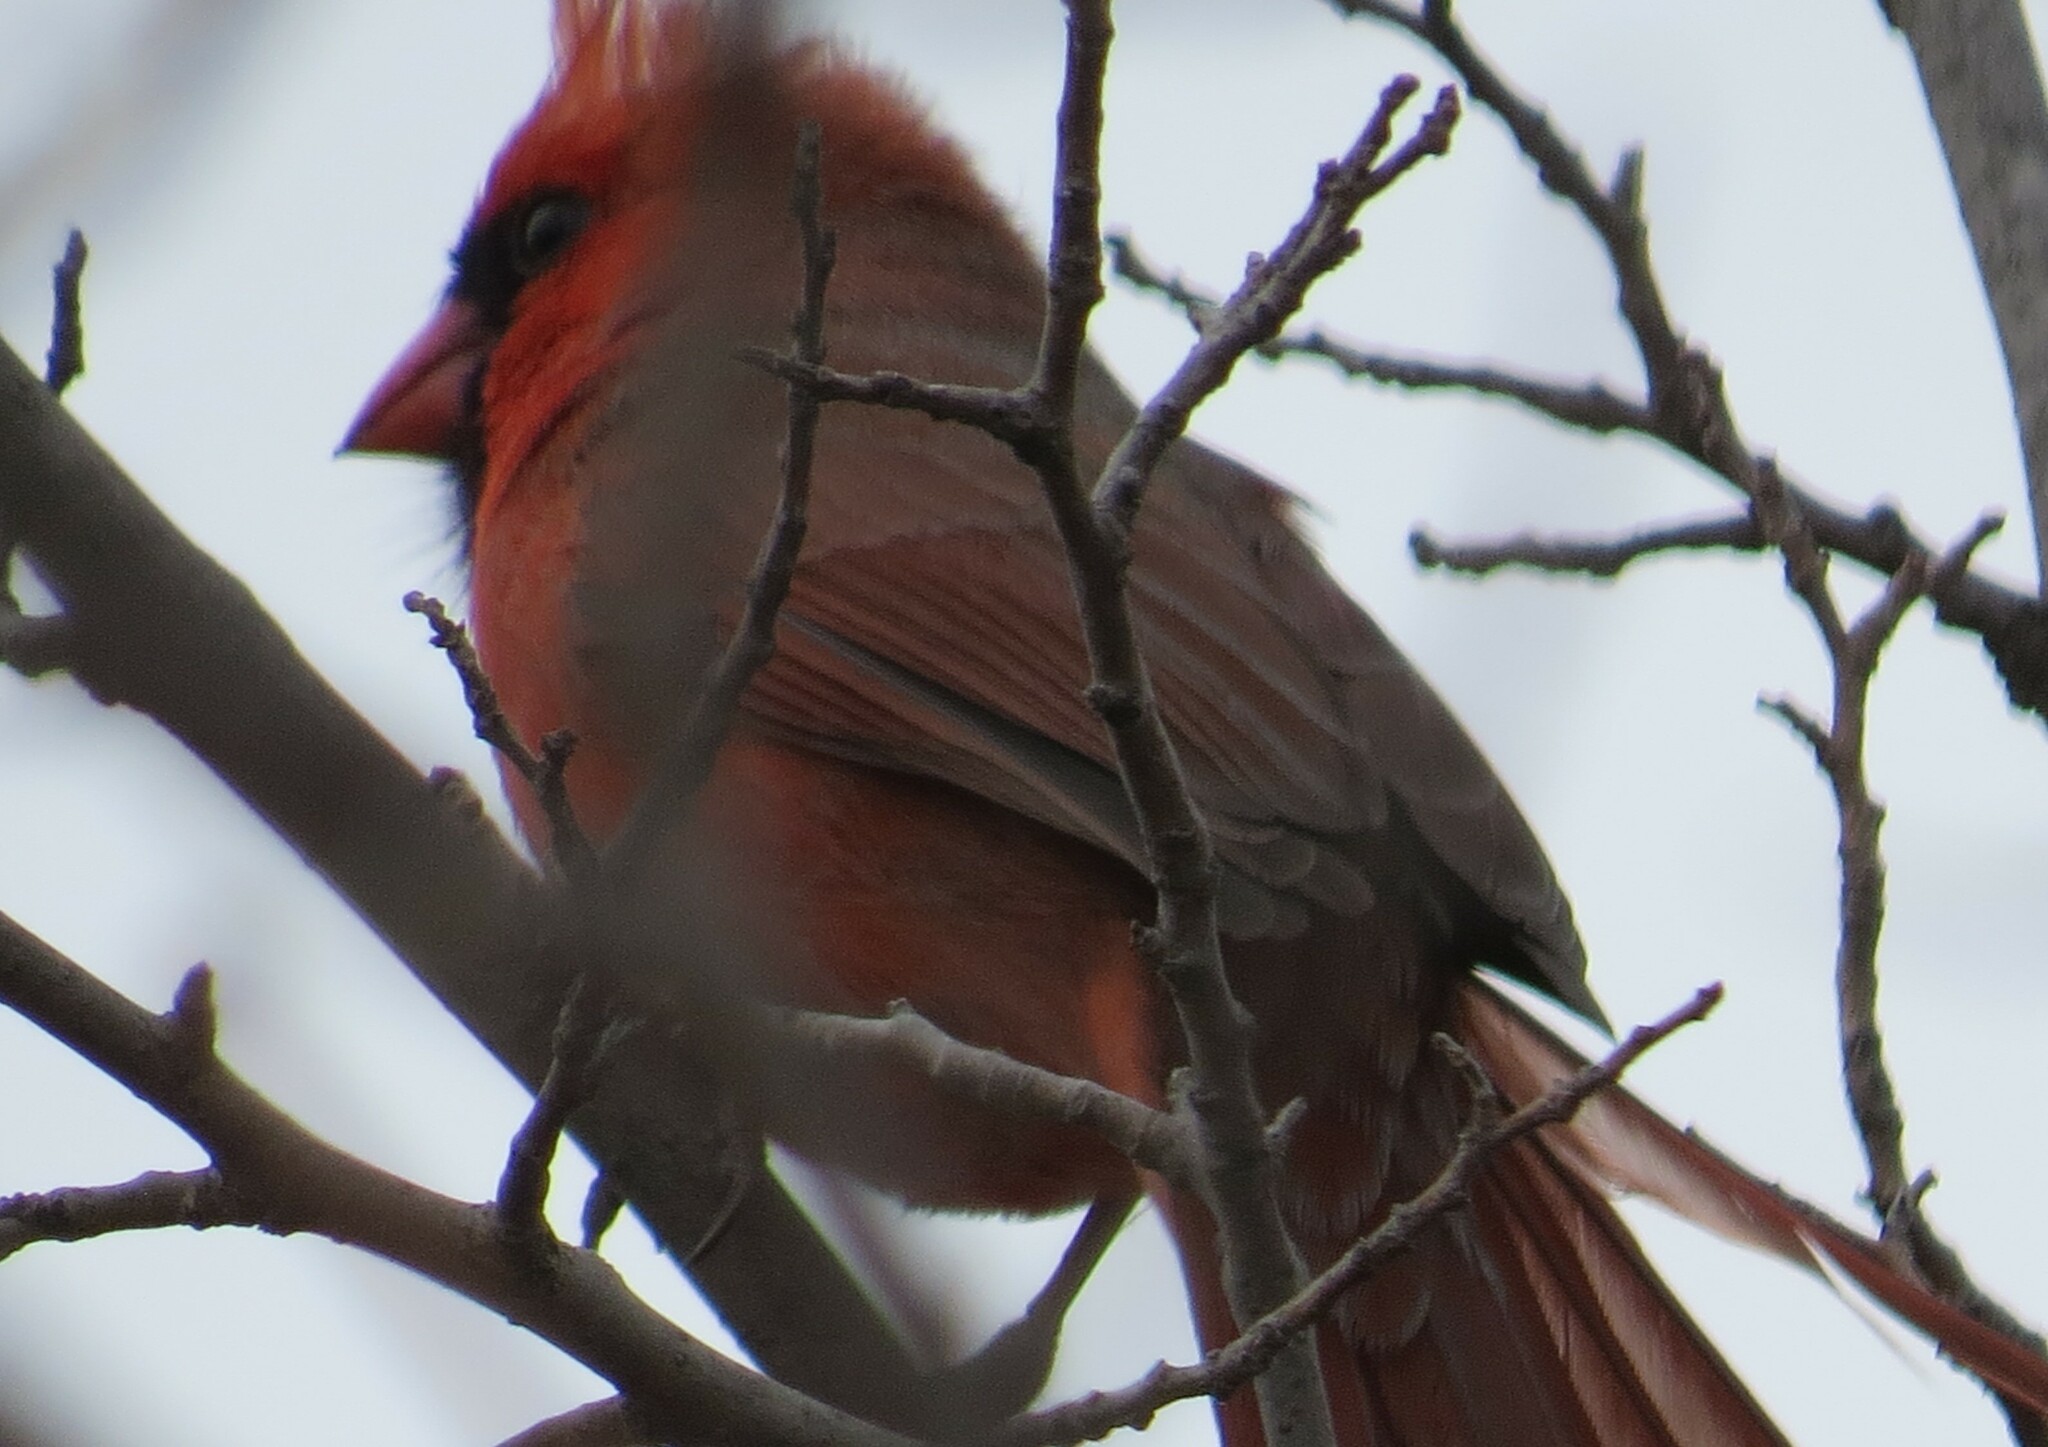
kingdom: Animalia
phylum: Chordata
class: Aves
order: Passeriformes
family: Cardinalidae
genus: Cardinalis
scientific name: Cardinalis cardinalis
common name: Northern cardinal
